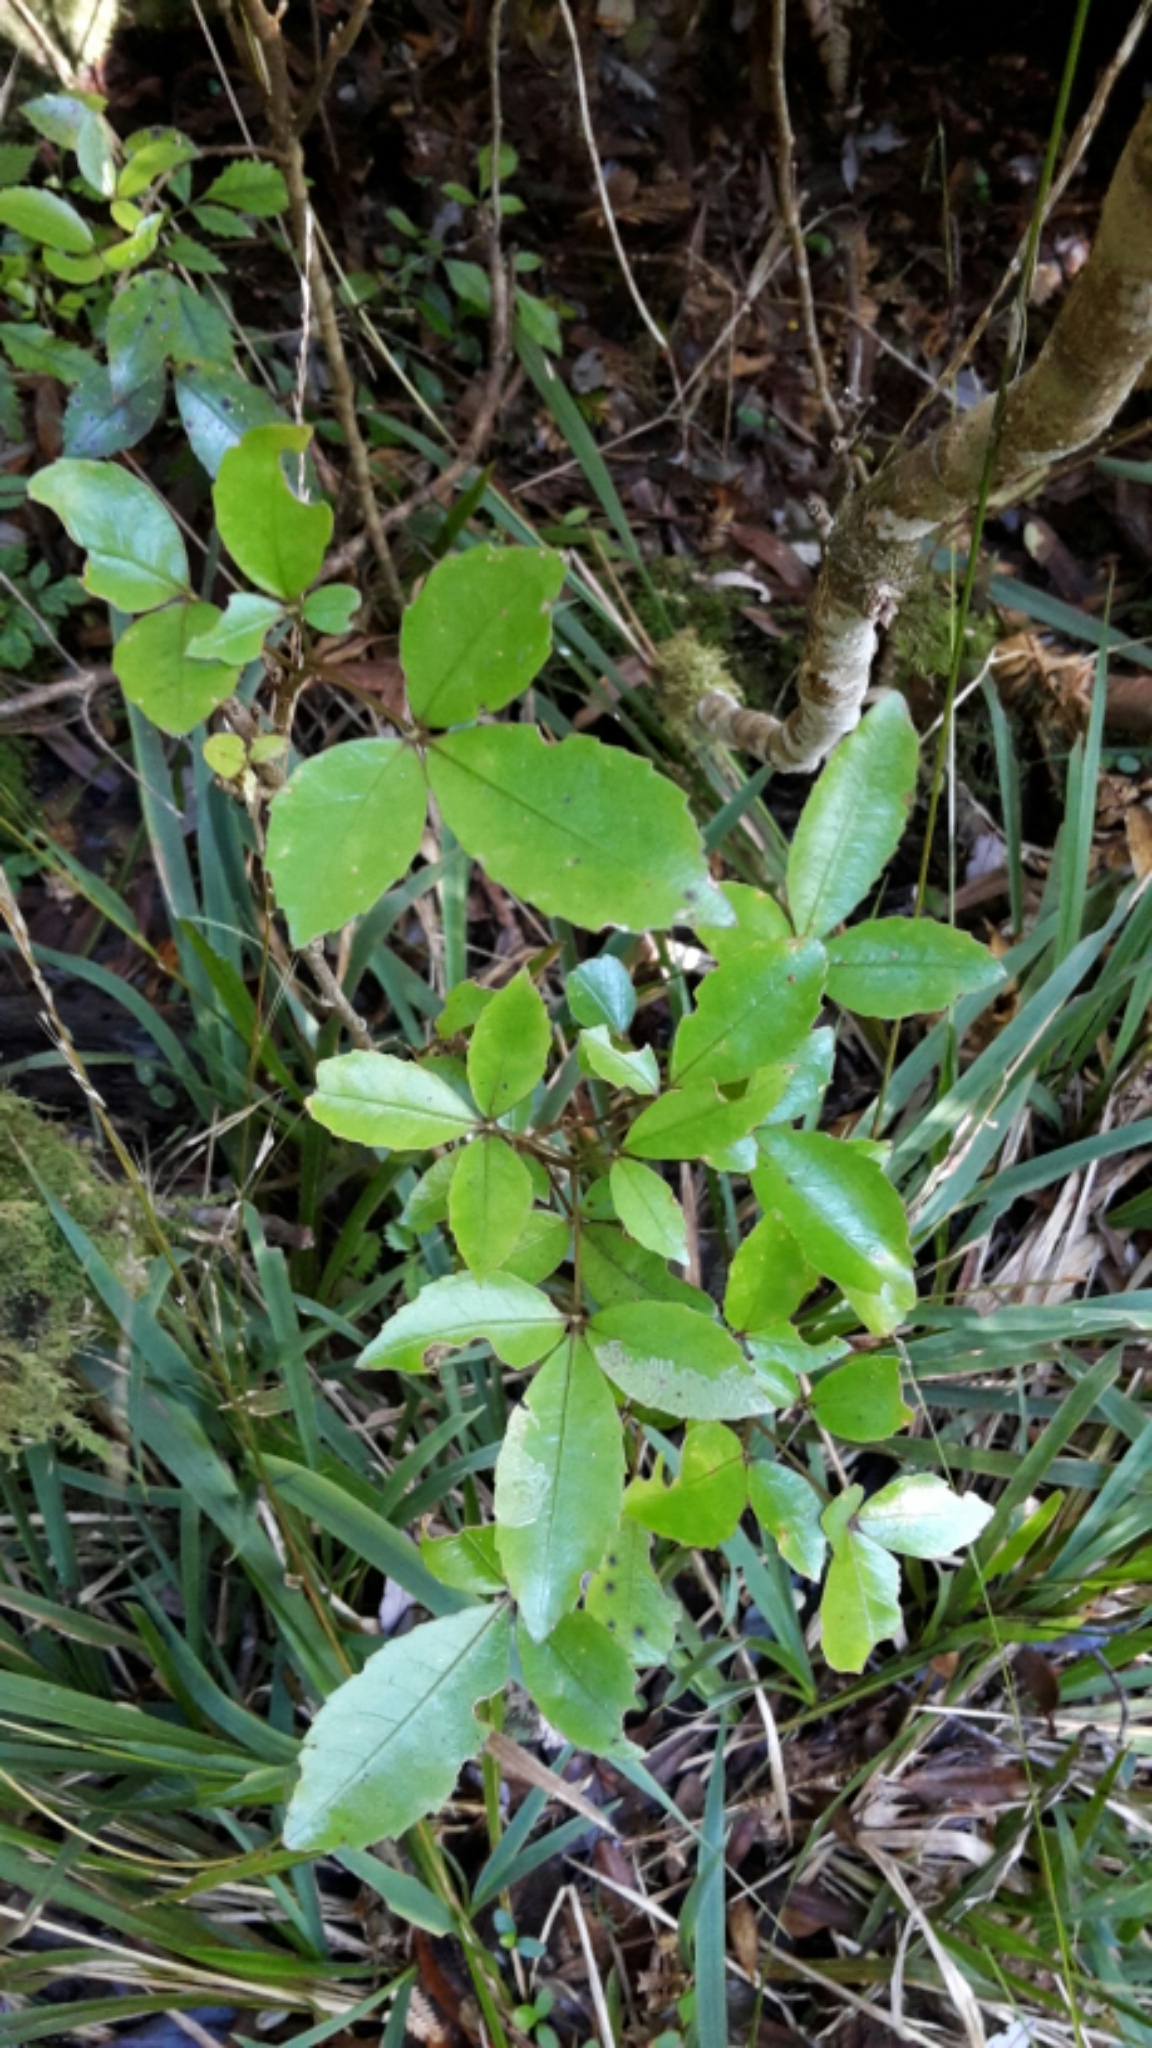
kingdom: Plantae
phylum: Tracheophyta
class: Magnoliopsida
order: Apiales
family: Araliaceae
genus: Raukaua
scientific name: Raukaua simplex
